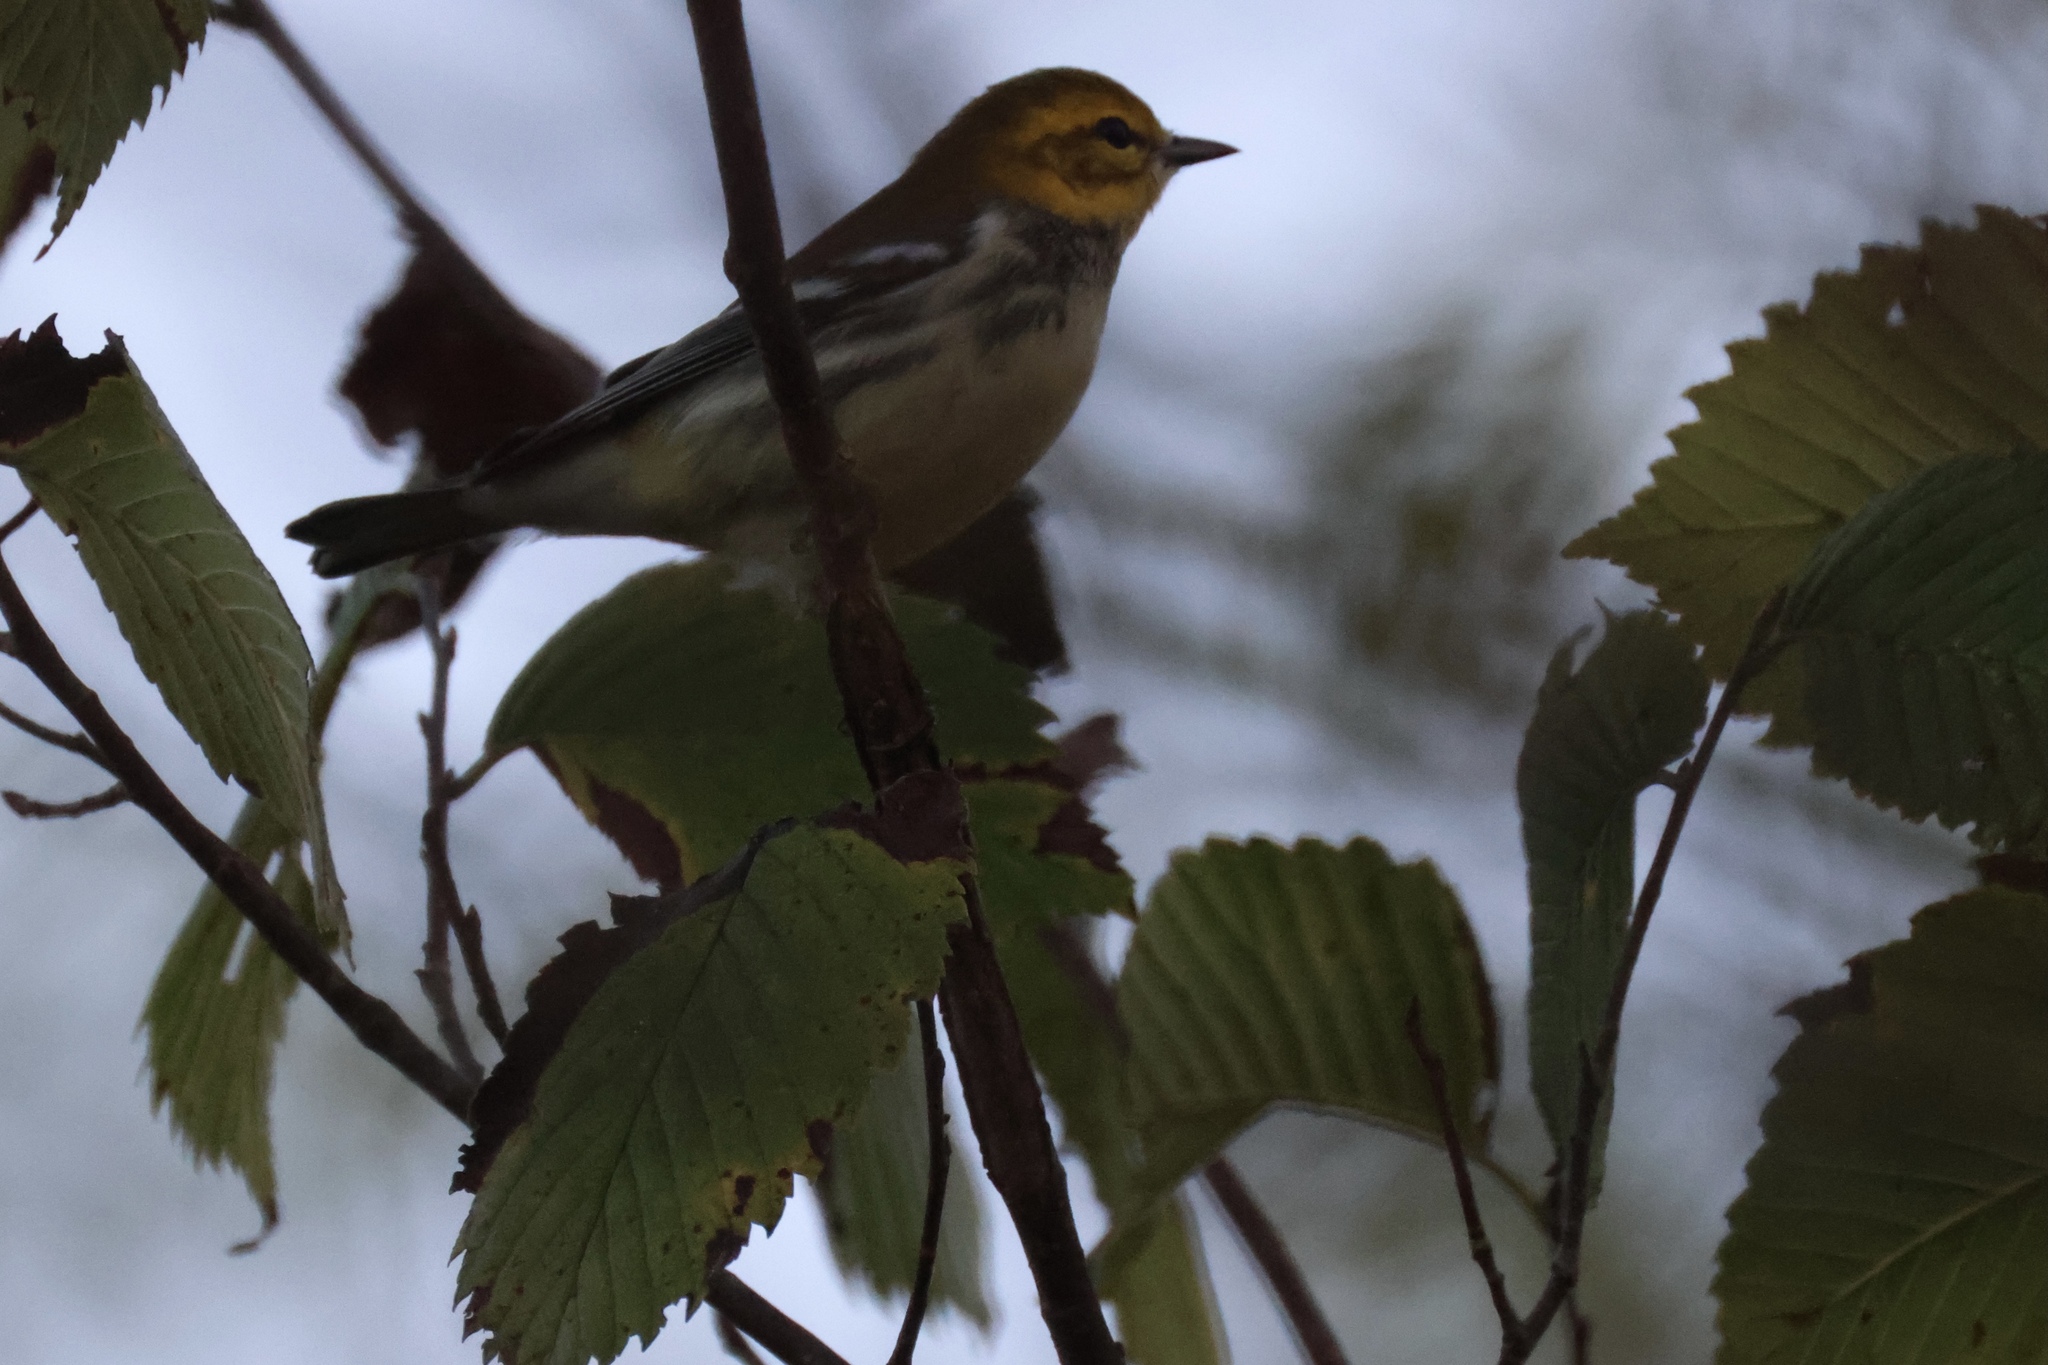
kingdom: Animalia
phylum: Chordata
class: Aves
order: Passeriformes
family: Parulidae
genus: Setophaga
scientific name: Setophaga virens
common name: Black-throated green warbler
